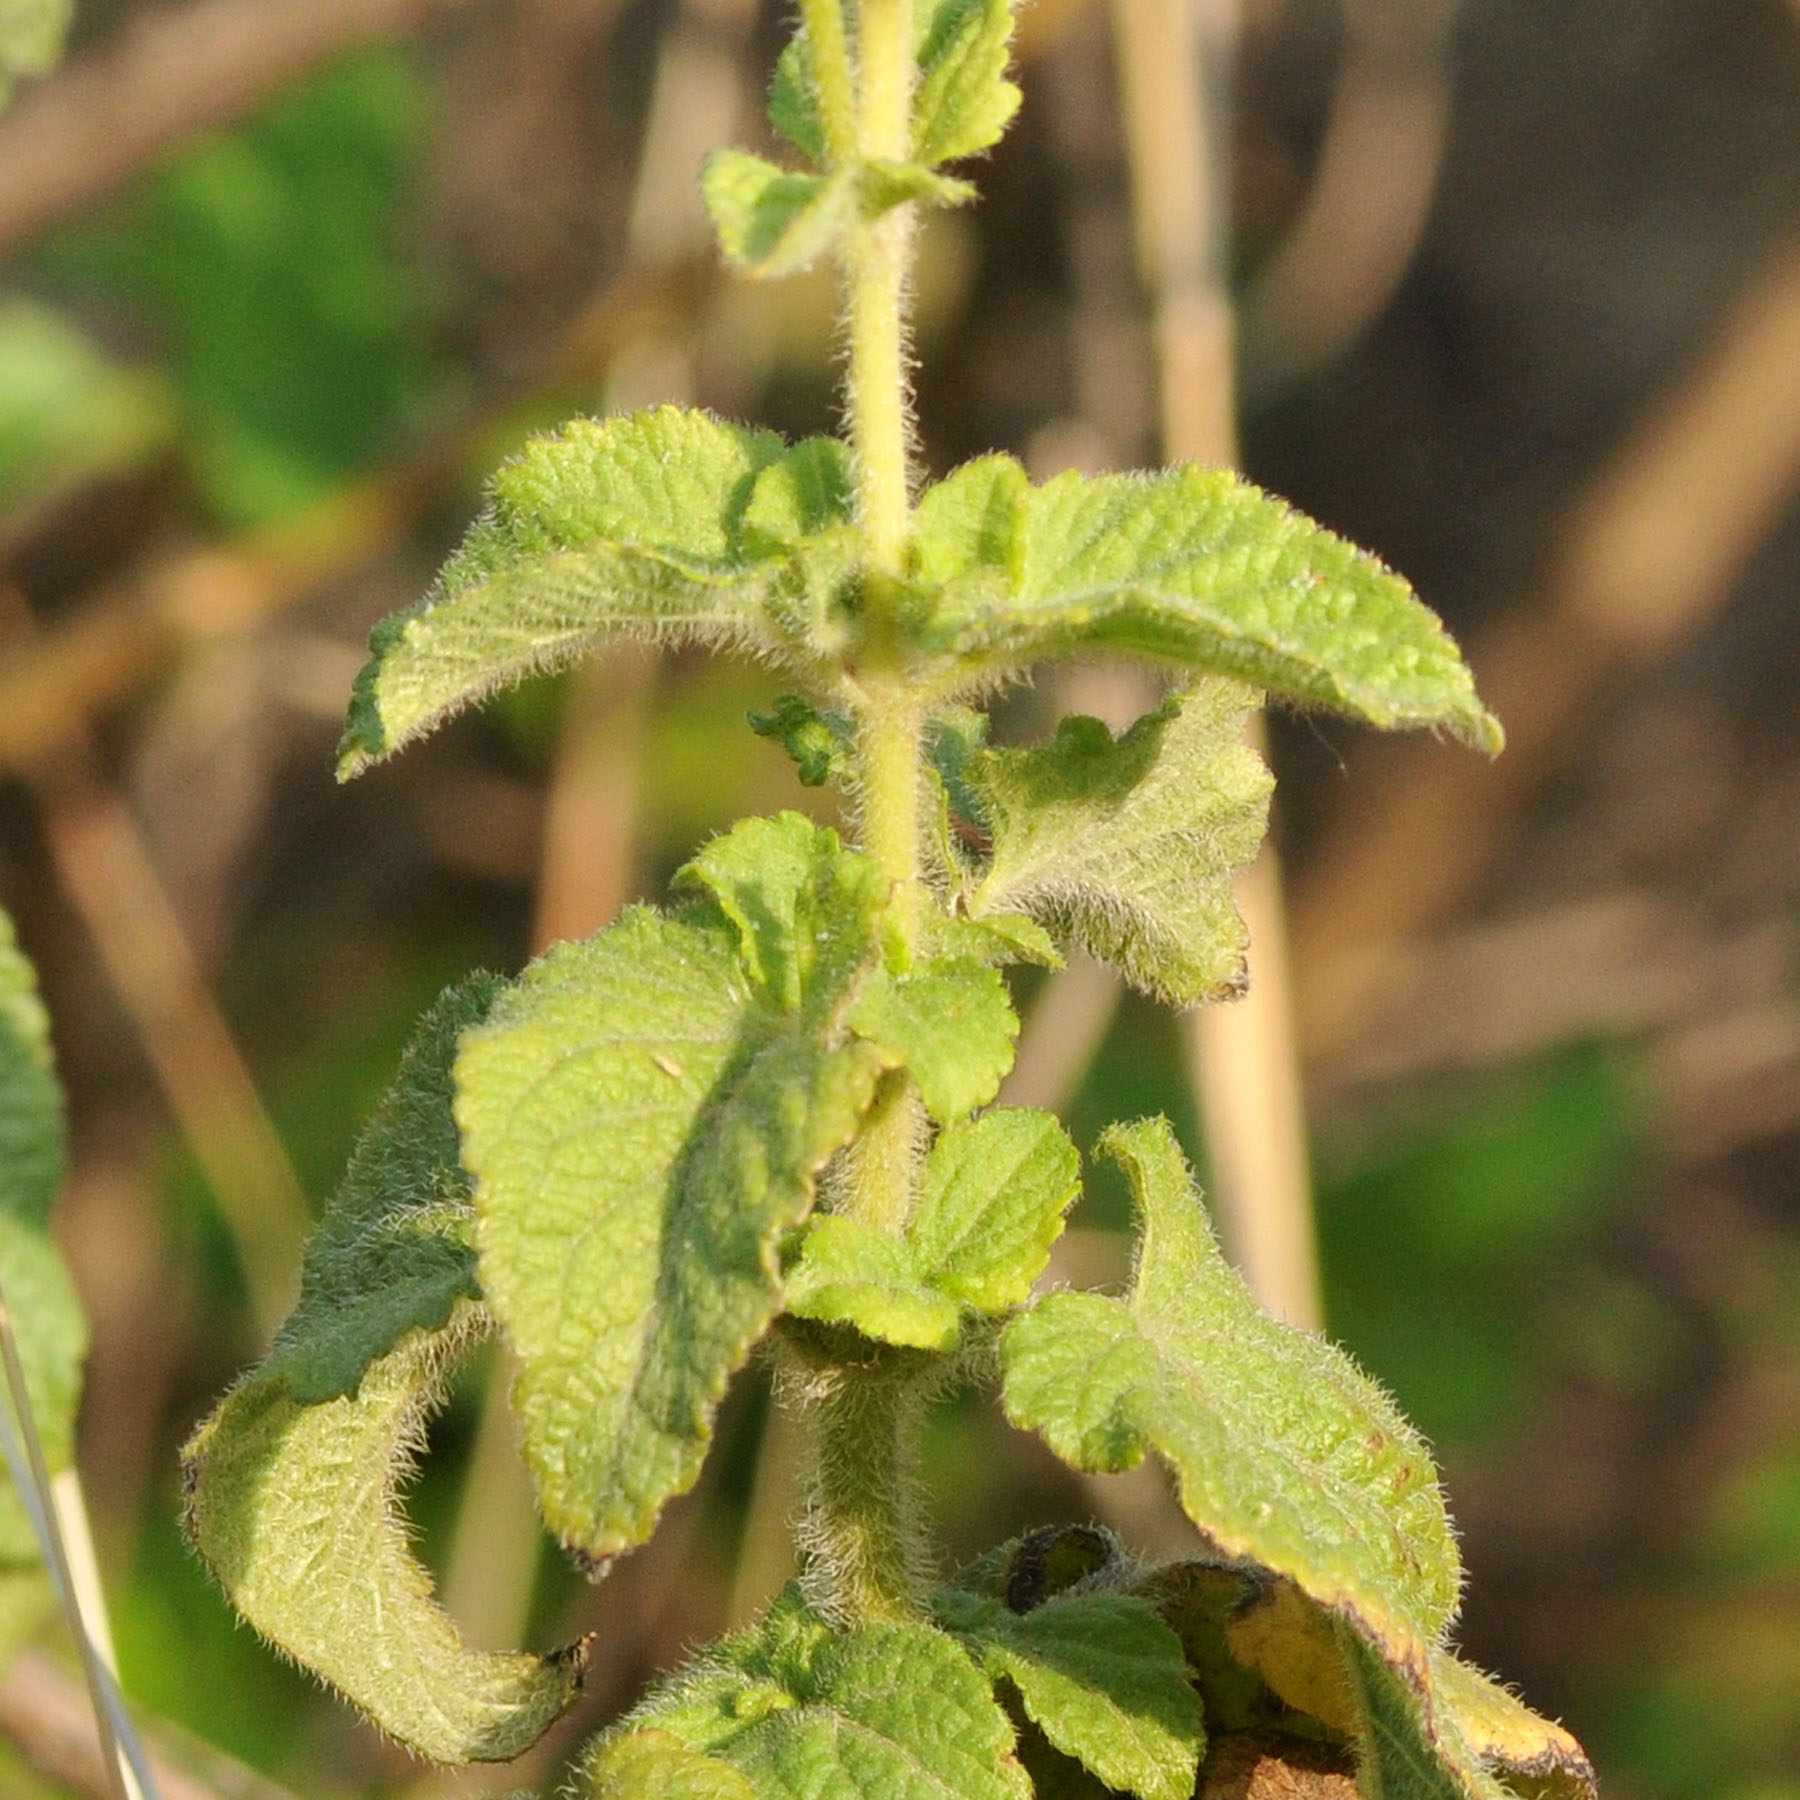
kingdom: Plantae
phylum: Tracheophyta
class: Magnoliopsida
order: Asterales
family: Asteraceae
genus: Ageratum
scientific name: Ageratum houstonianum
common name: Bluemink
